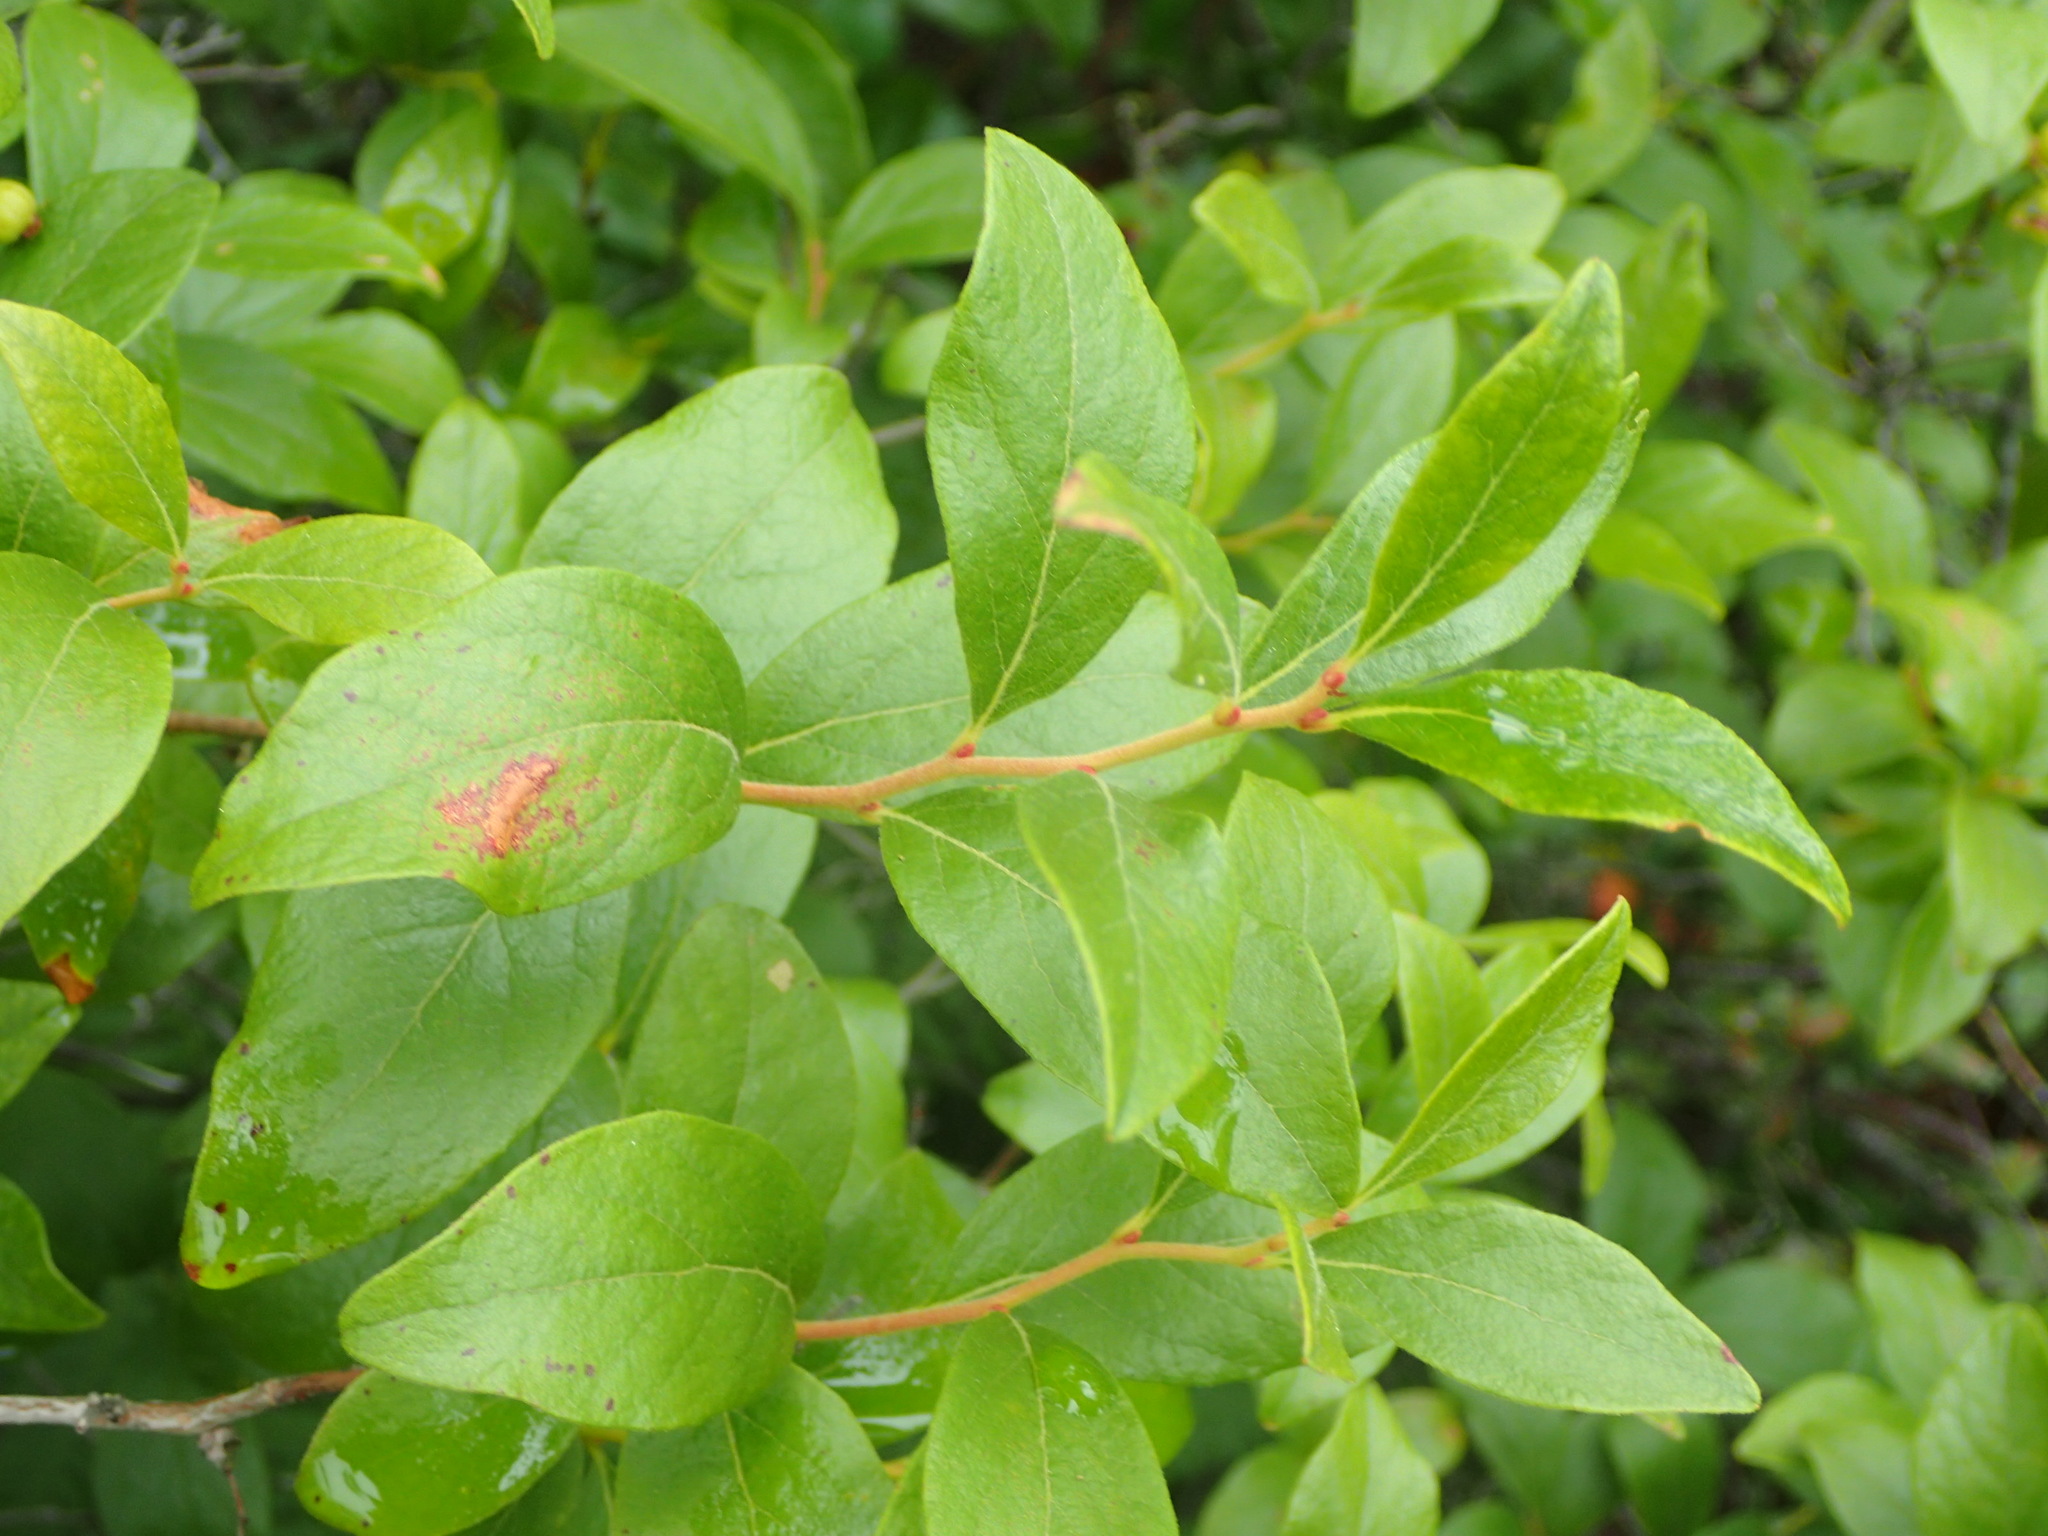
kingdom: Plantae
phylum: Tracheophyta
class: Magnoliopsida
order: Ericales
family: Ericaceae
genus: Gaylussacia
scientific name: Gaylussacia baccata
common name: Black huckleberry
